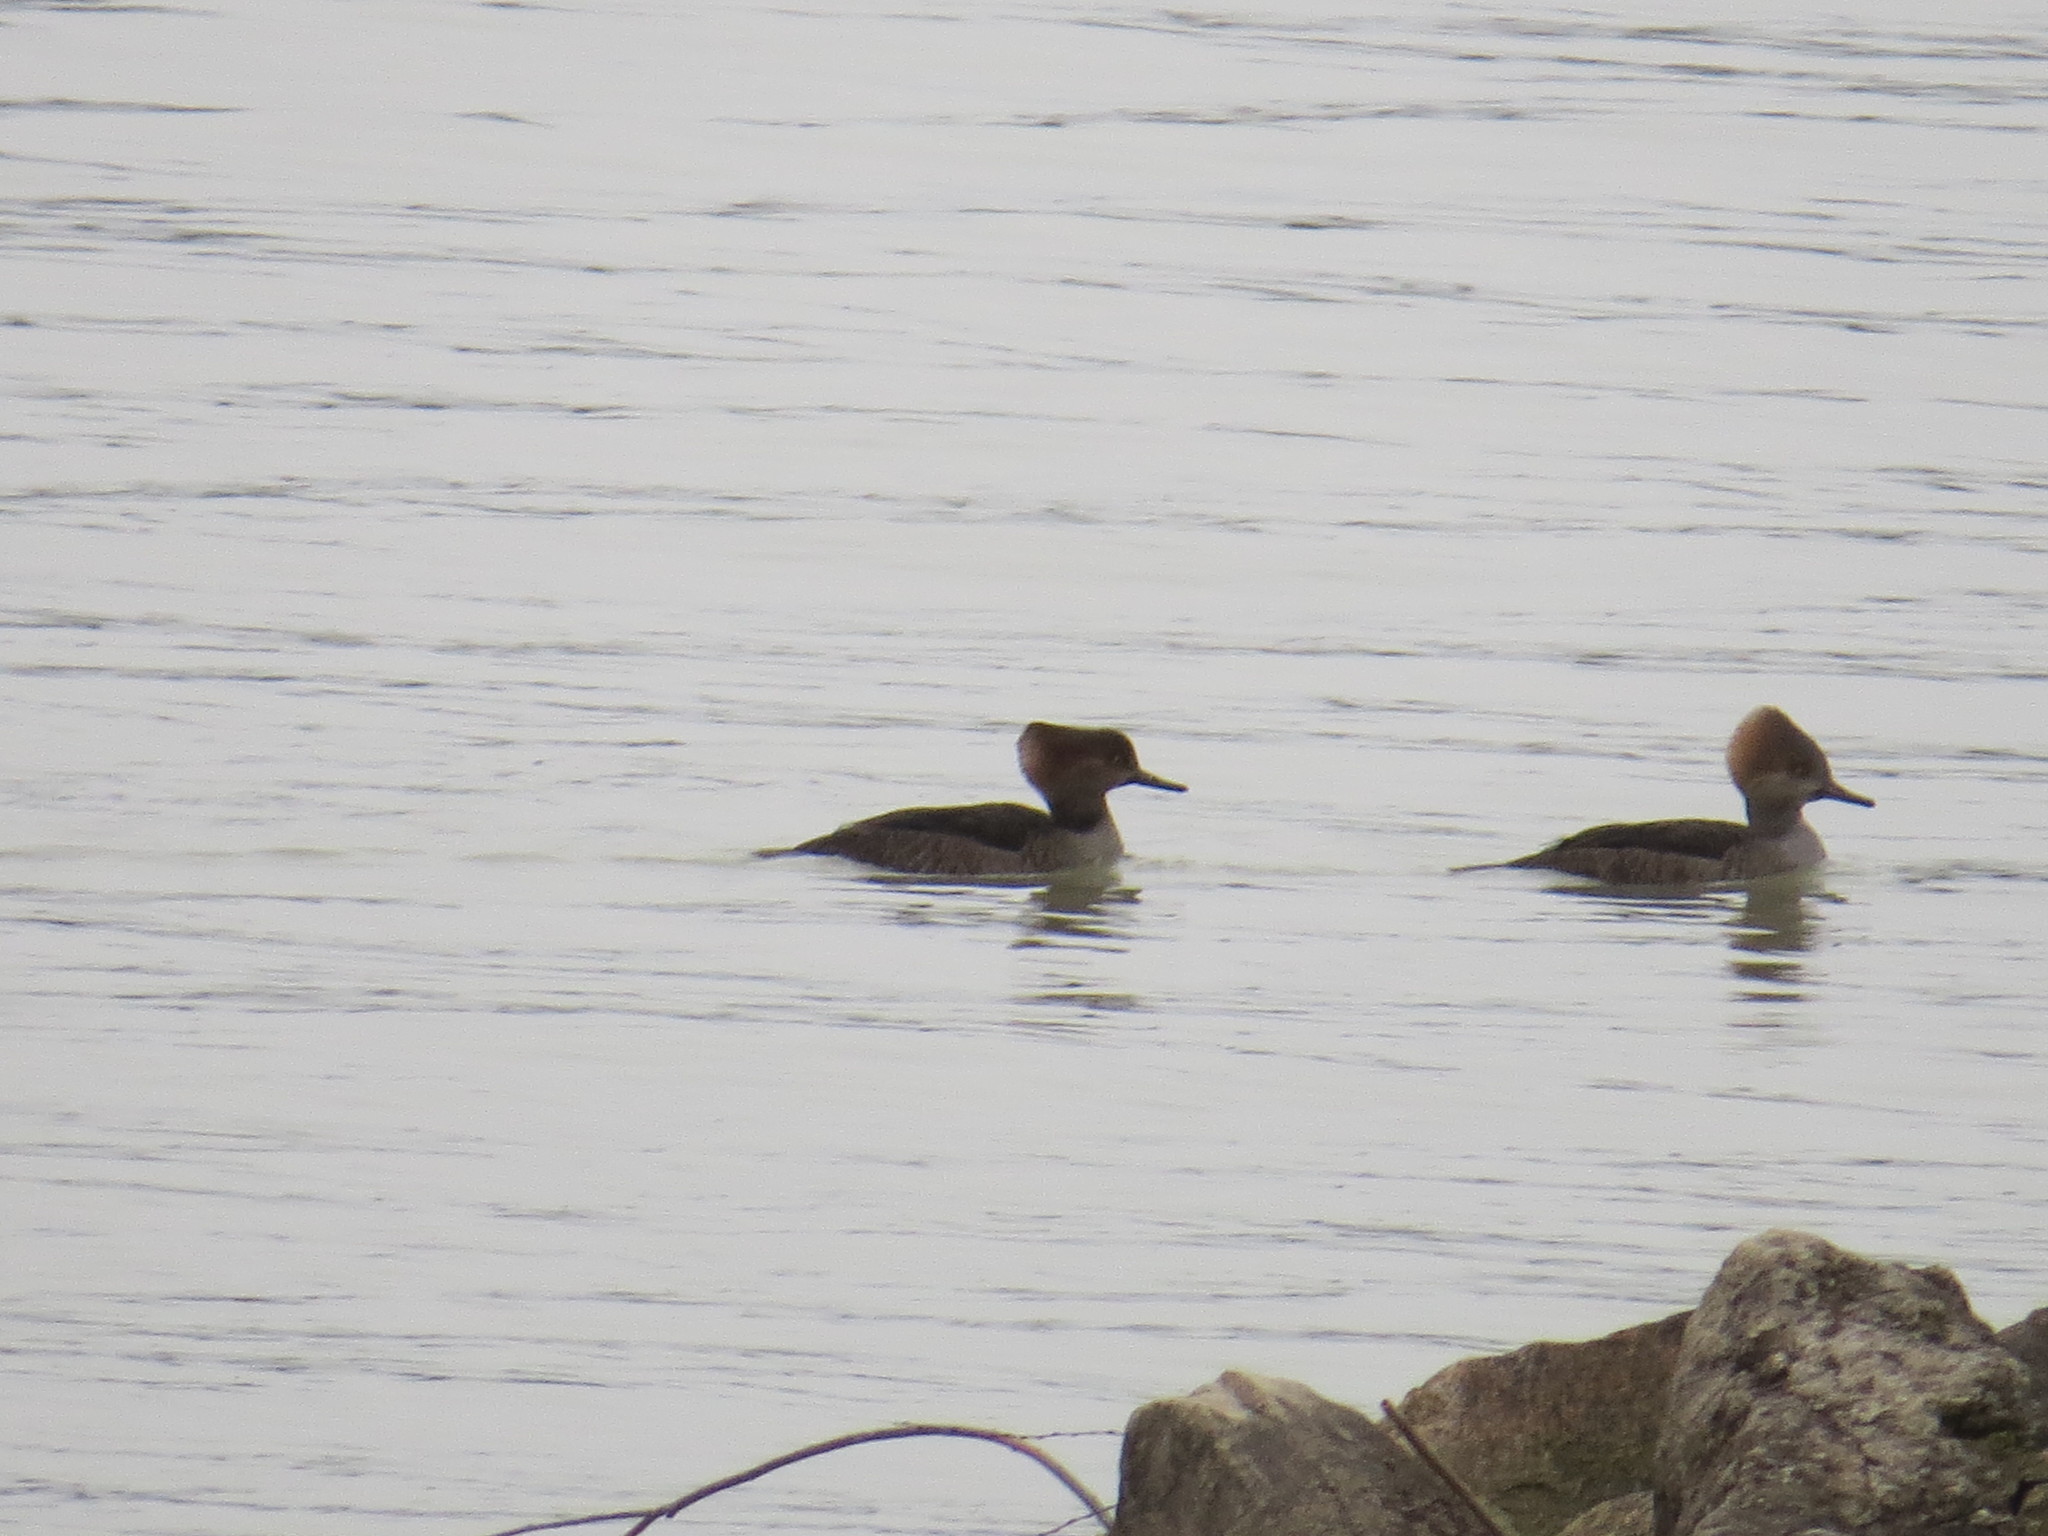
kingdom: Animalia
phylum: Chordata
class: Aves
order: Anseriformes
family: Anatidae
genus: Lophodytes
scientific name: Lophodytes cucullatus
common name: Hooded merganser
